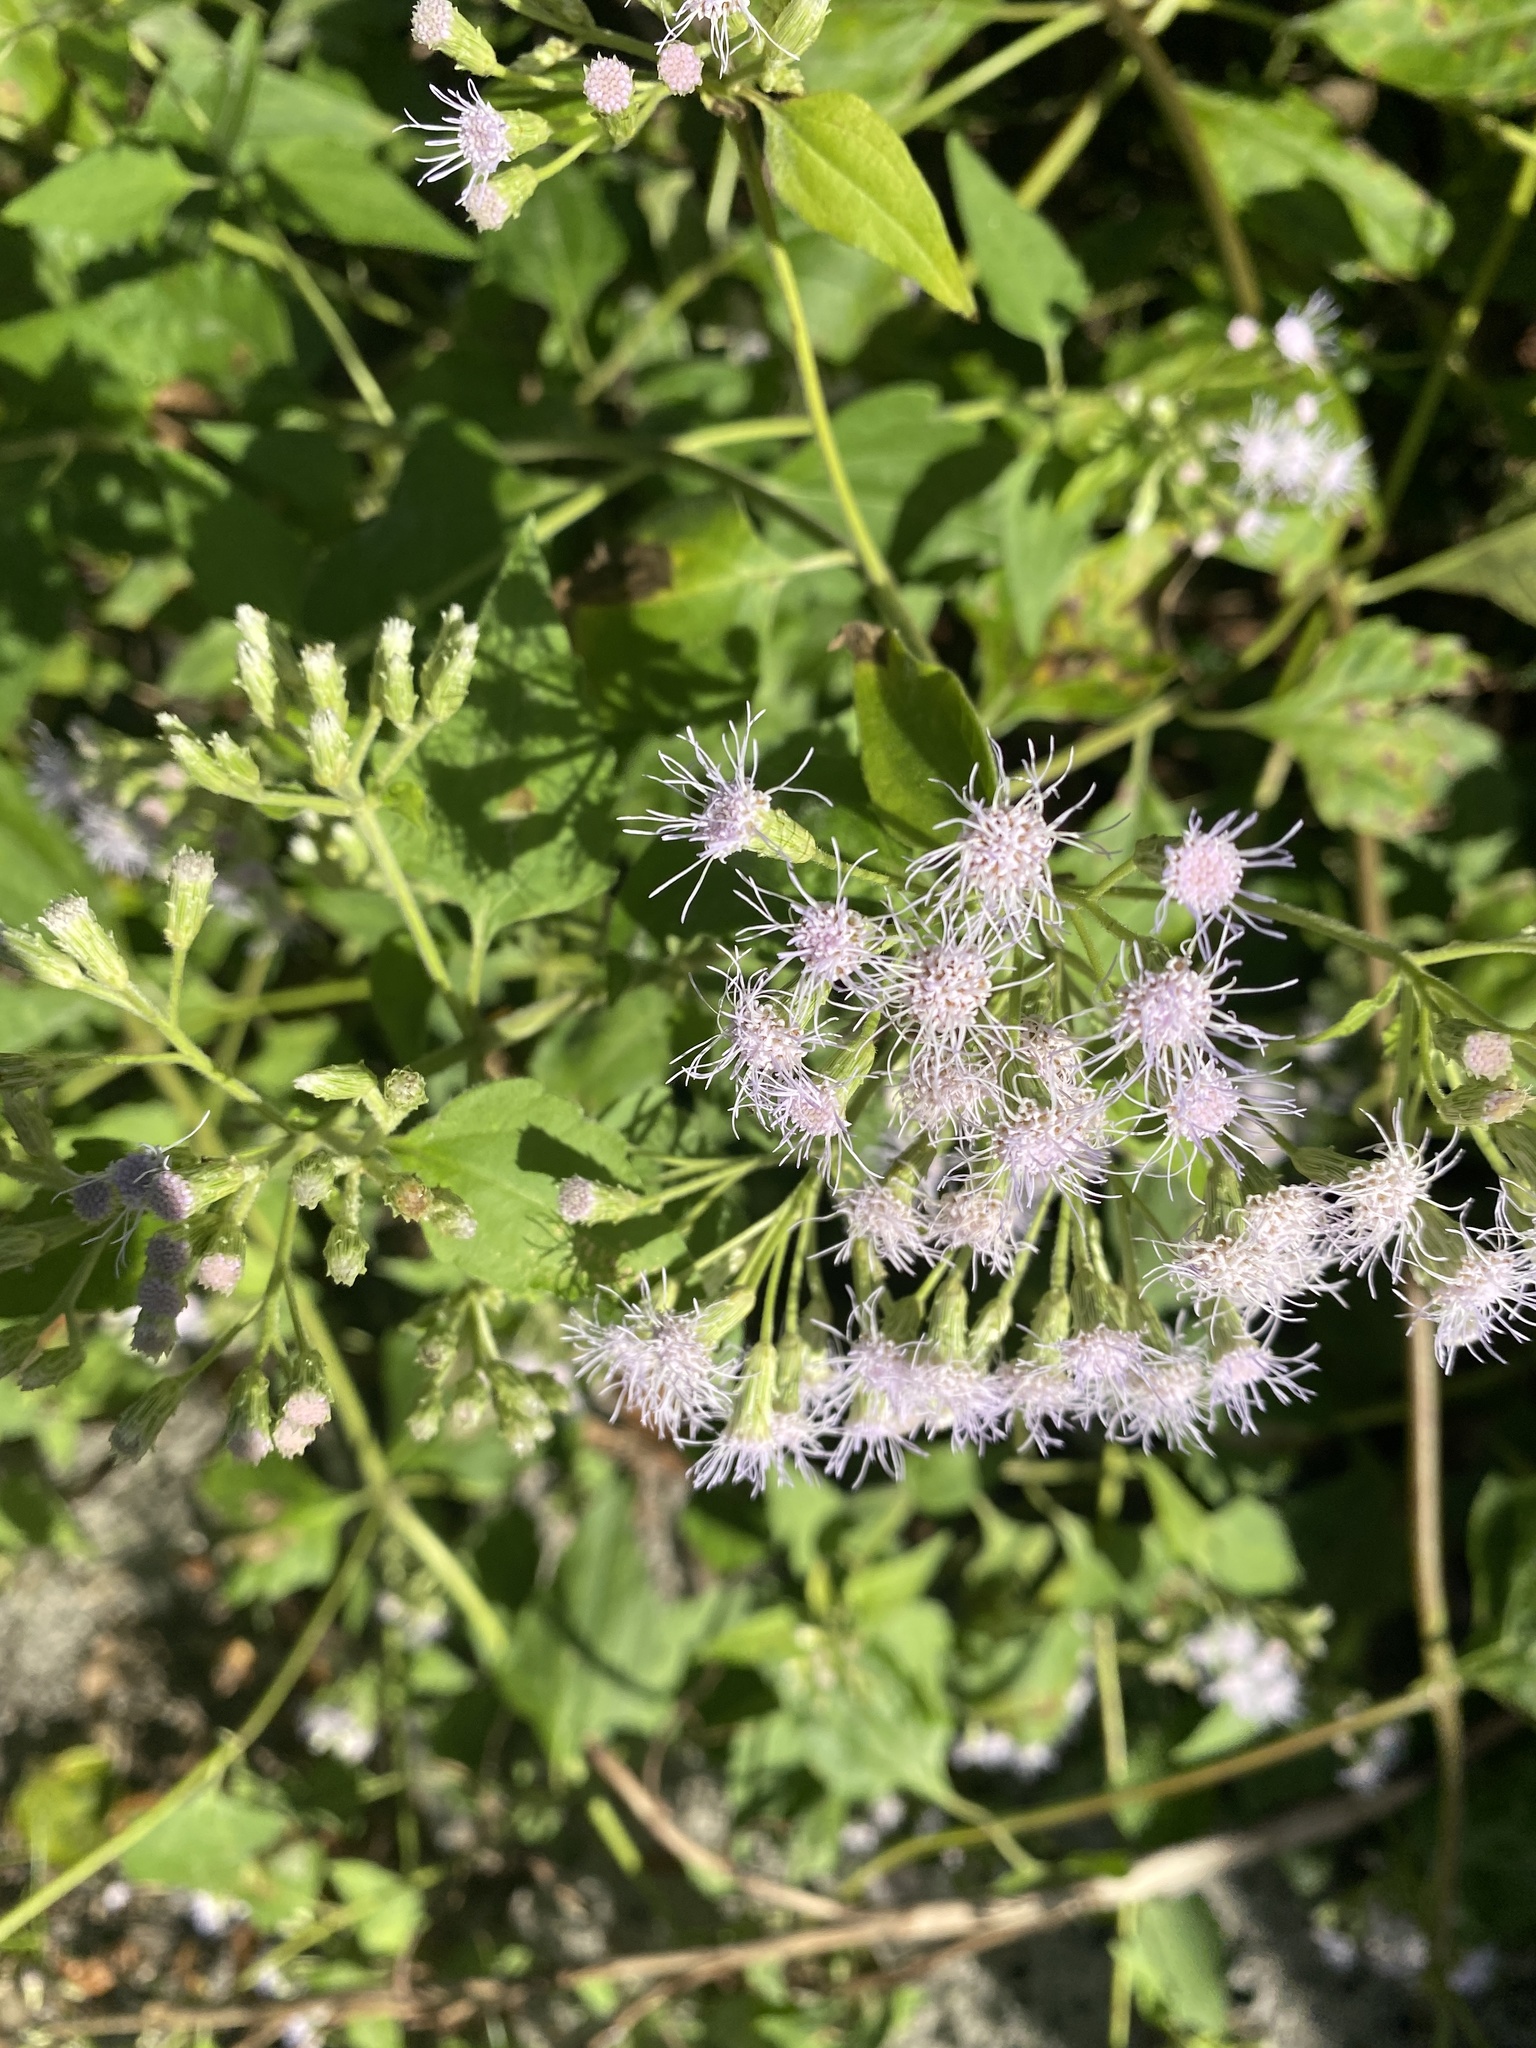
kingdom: Plantae
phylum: Tracheophyta
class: Magnoliopsida
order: Asterales
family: Asteraceae
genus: Chromolaena
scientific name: Chromolaena odorata
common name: Siamweed
